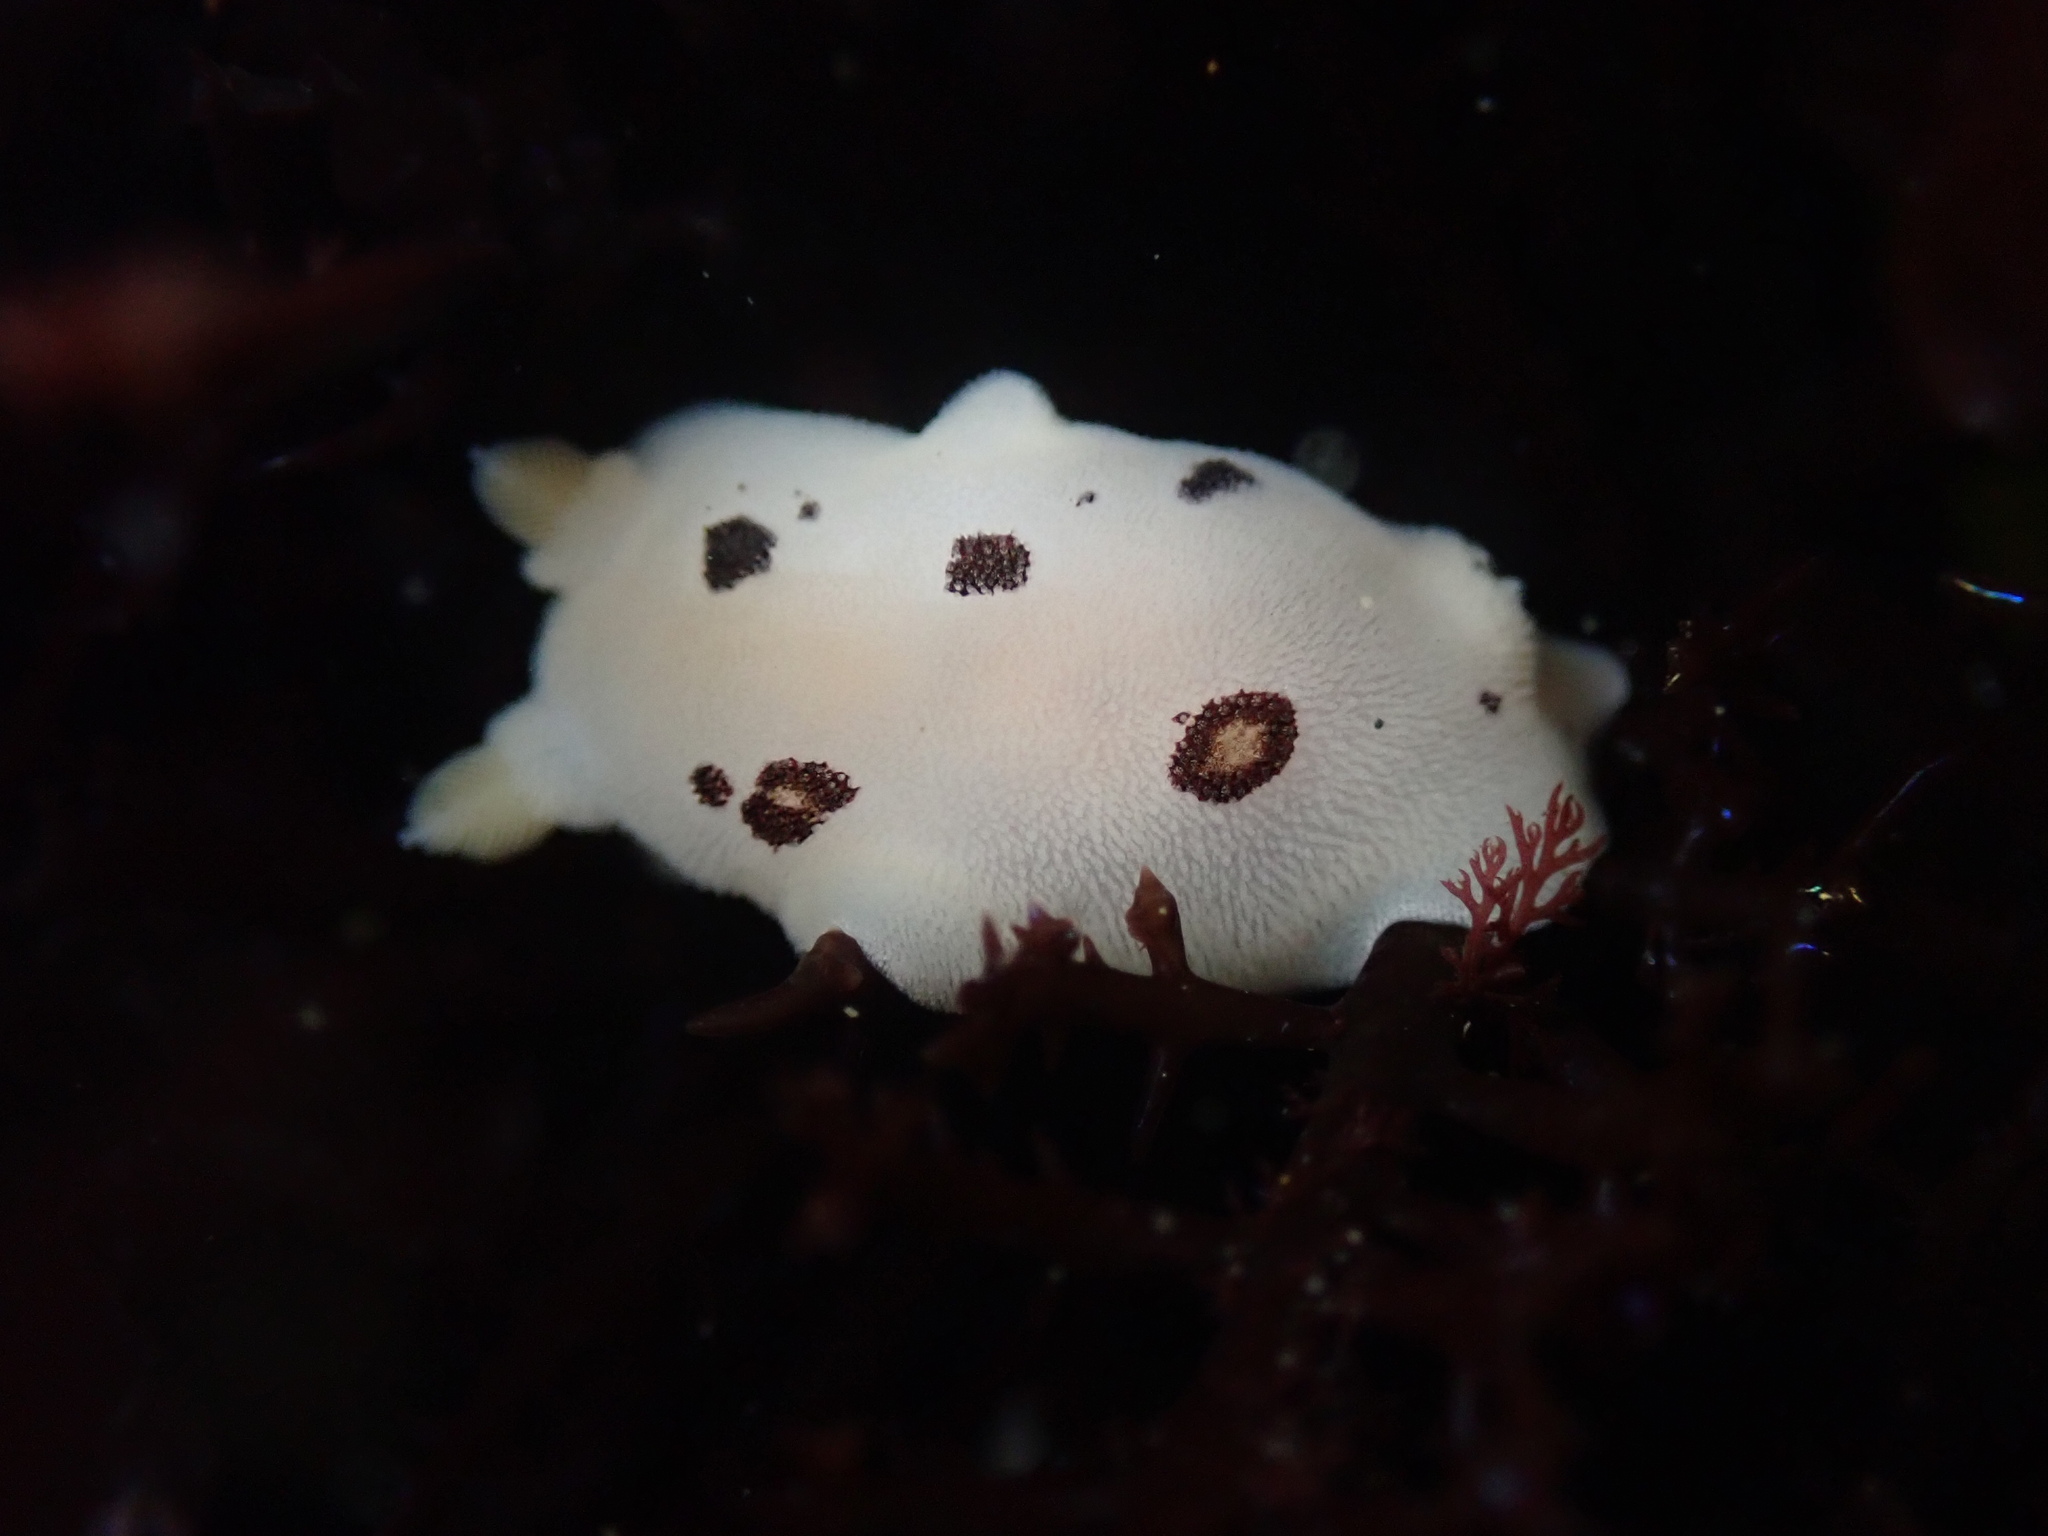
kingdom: Animalia
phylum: Mollusca
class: Gastropoda
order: Nudibranchia
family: Discodorididae
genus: Diaulula
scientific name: Diaulula sandiegensis
